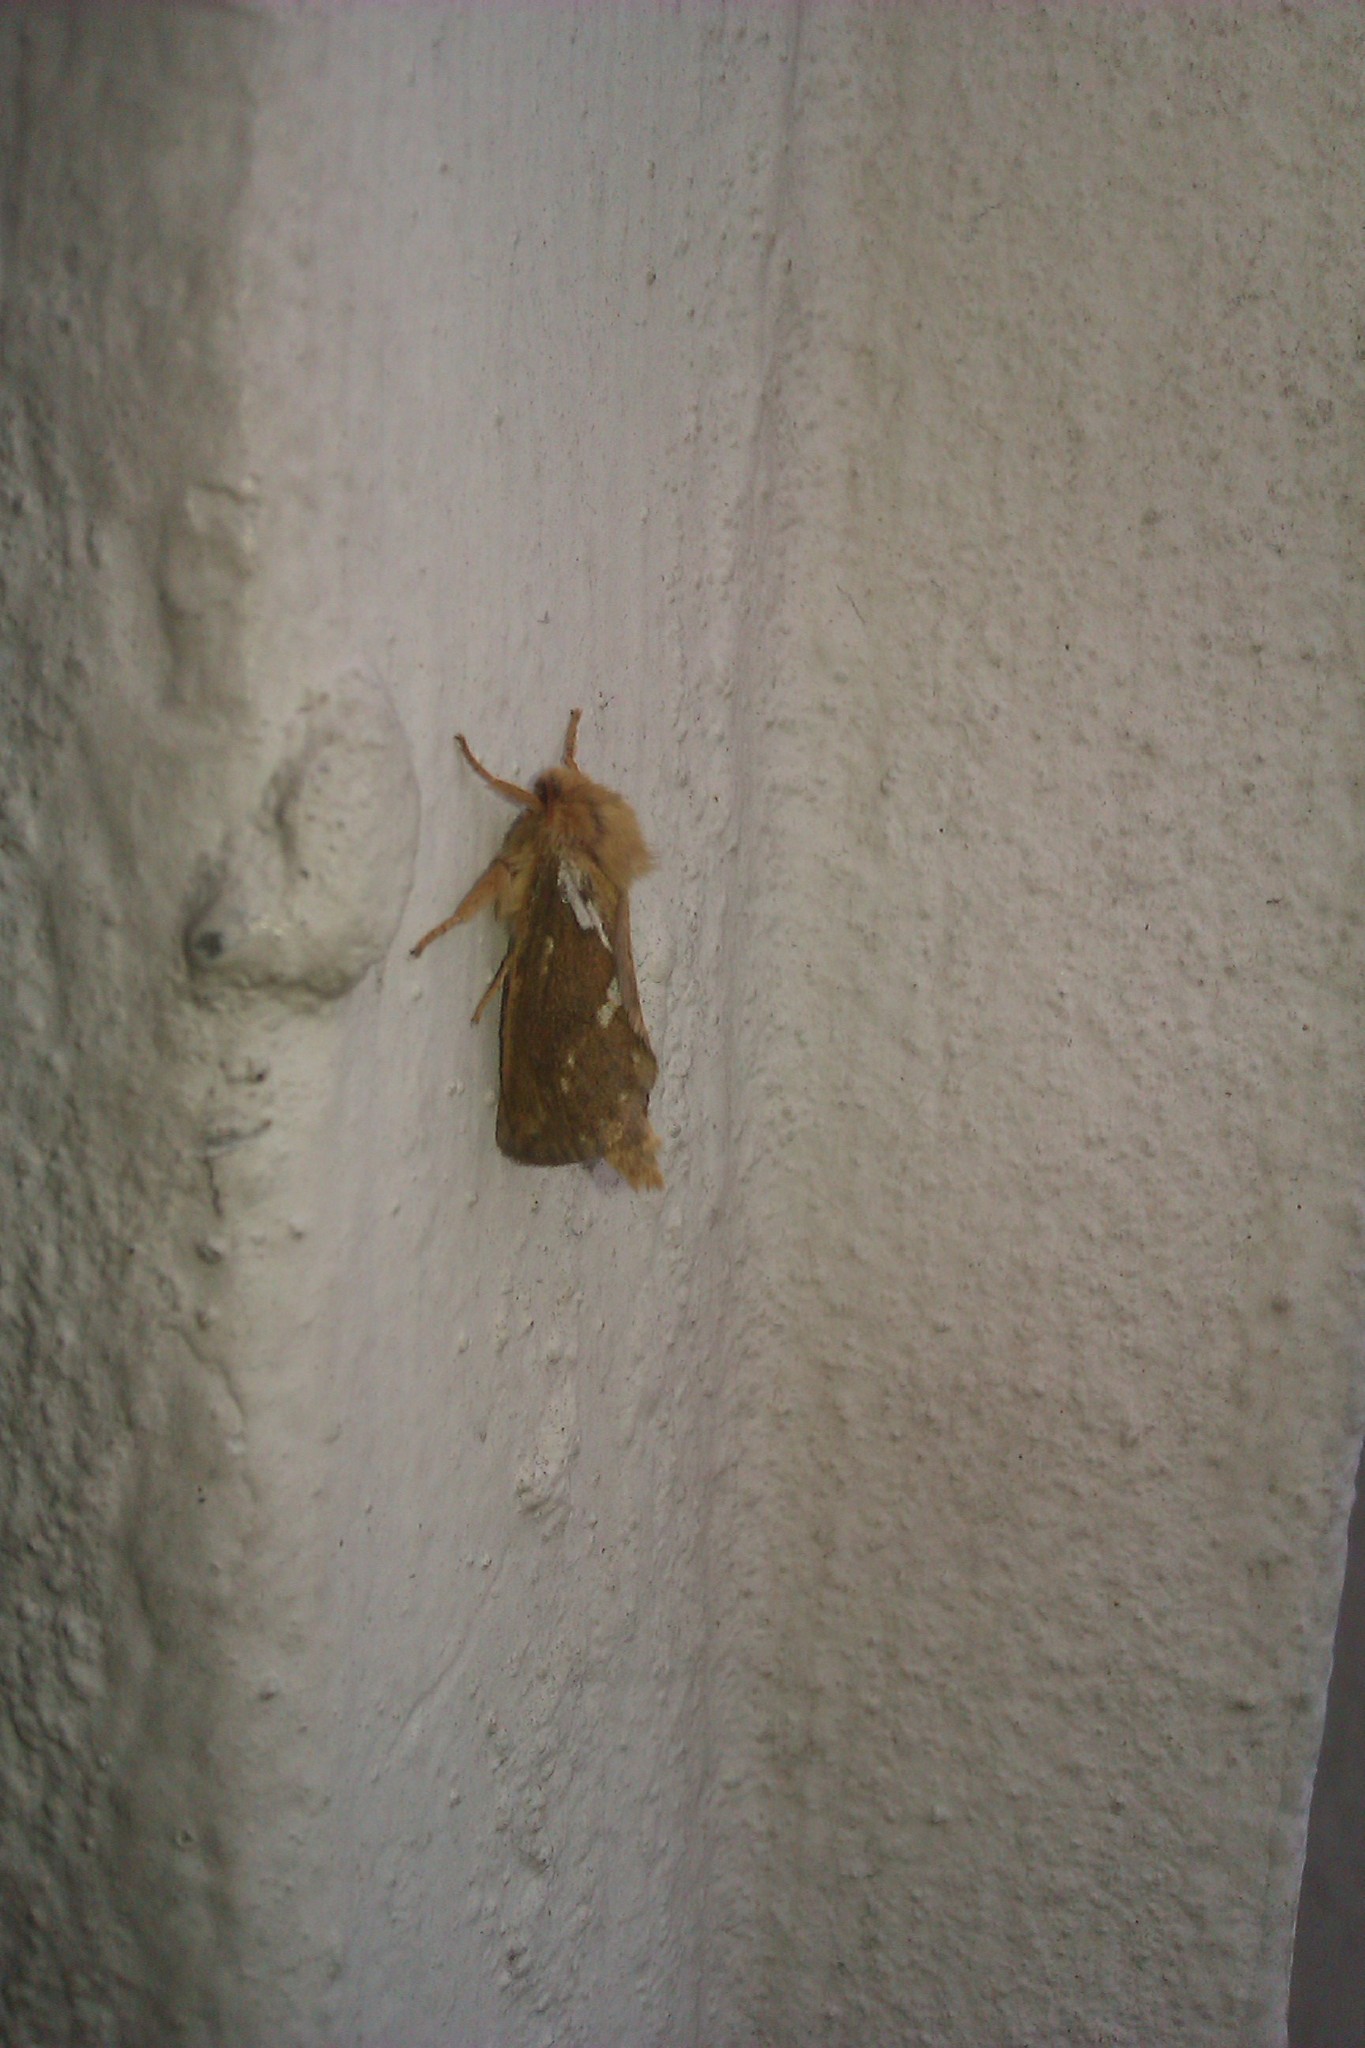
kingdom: Animalia
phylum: Arthropoda
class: Insecta
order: Lepidoptera
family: Hepialidae
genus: Korscheltellus
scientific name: Korscheltellus lupulina
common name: Common swift
